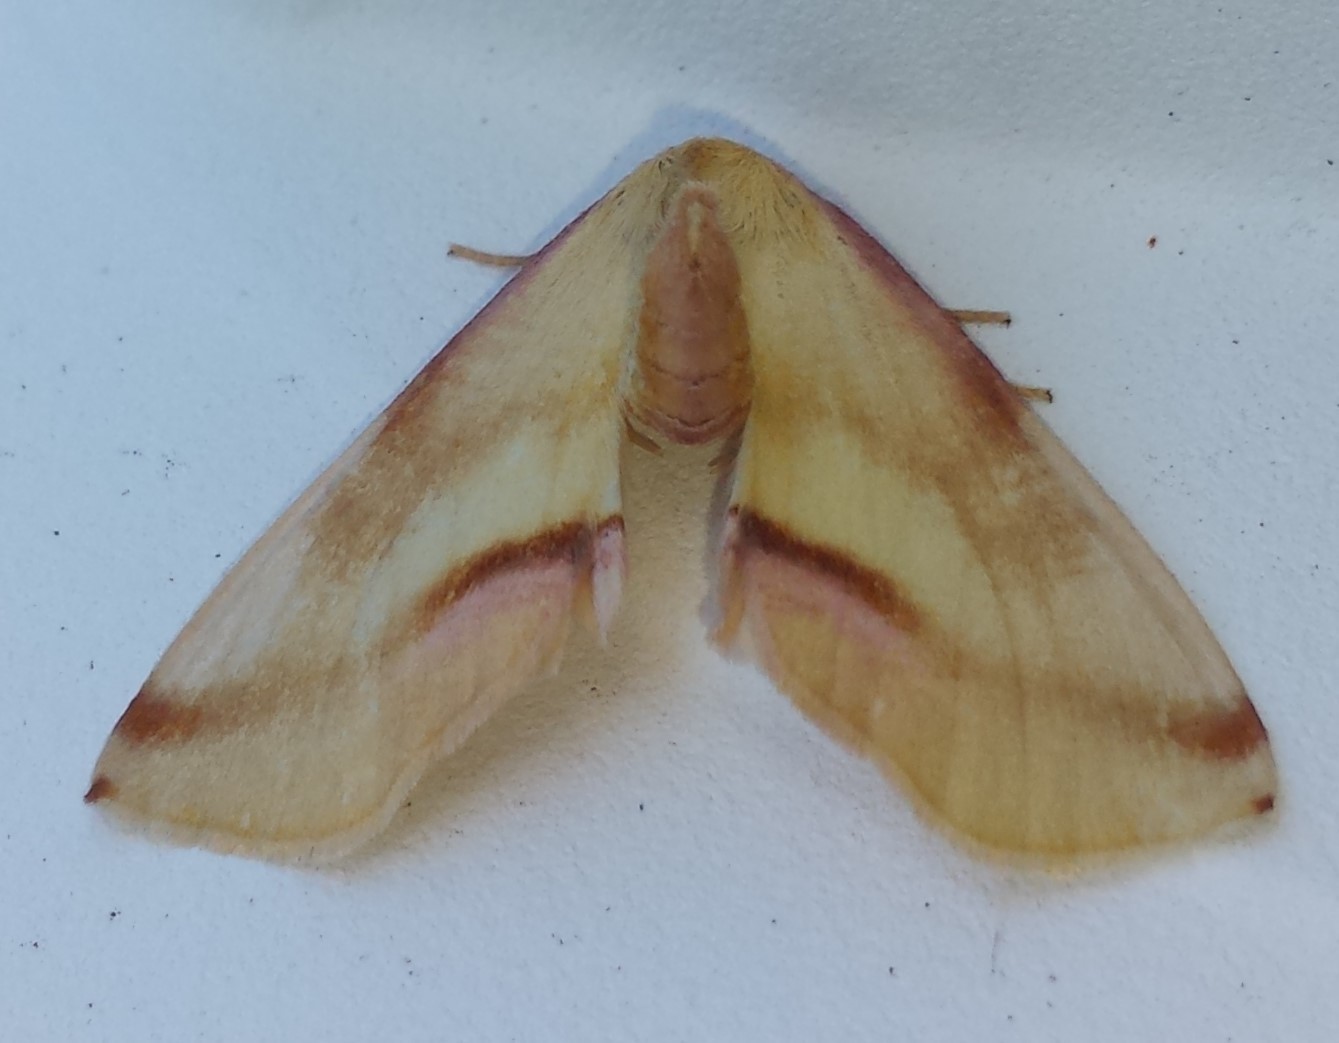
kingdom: Animalia
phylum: Arthropoda
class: Insecta
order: Lepidoptera
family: Geometridae
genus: Plagodis
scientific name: Plagodis serinaria
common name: Lemon plagodis
